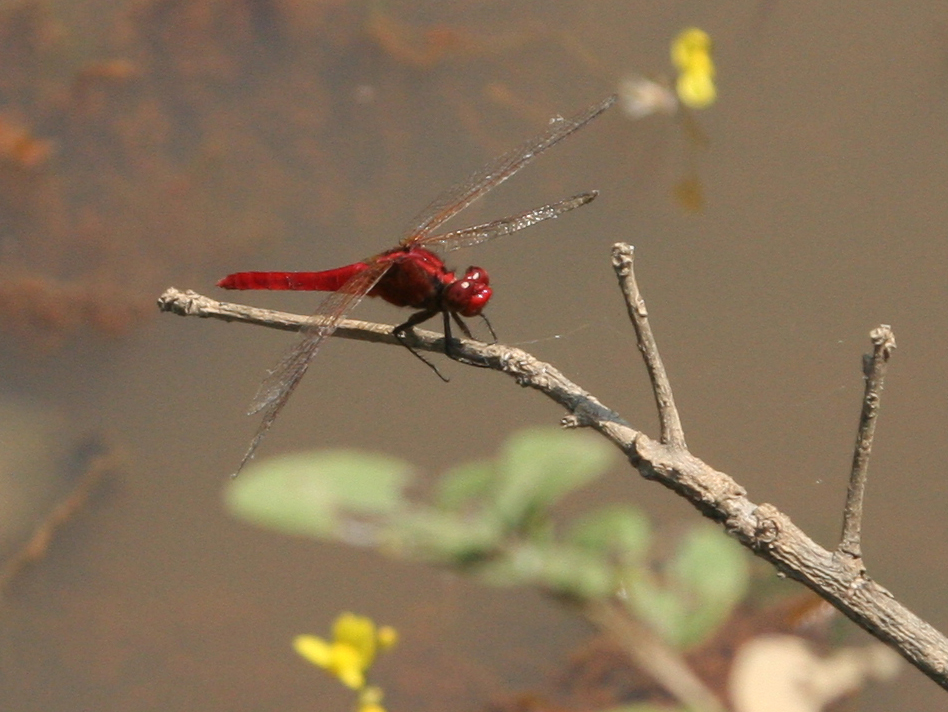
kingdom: Animalia
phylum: Arthropoda
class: Insecta
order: Odonata
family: Libellulidae
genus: Rhodothemis
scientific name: Rhodothemis rufa
